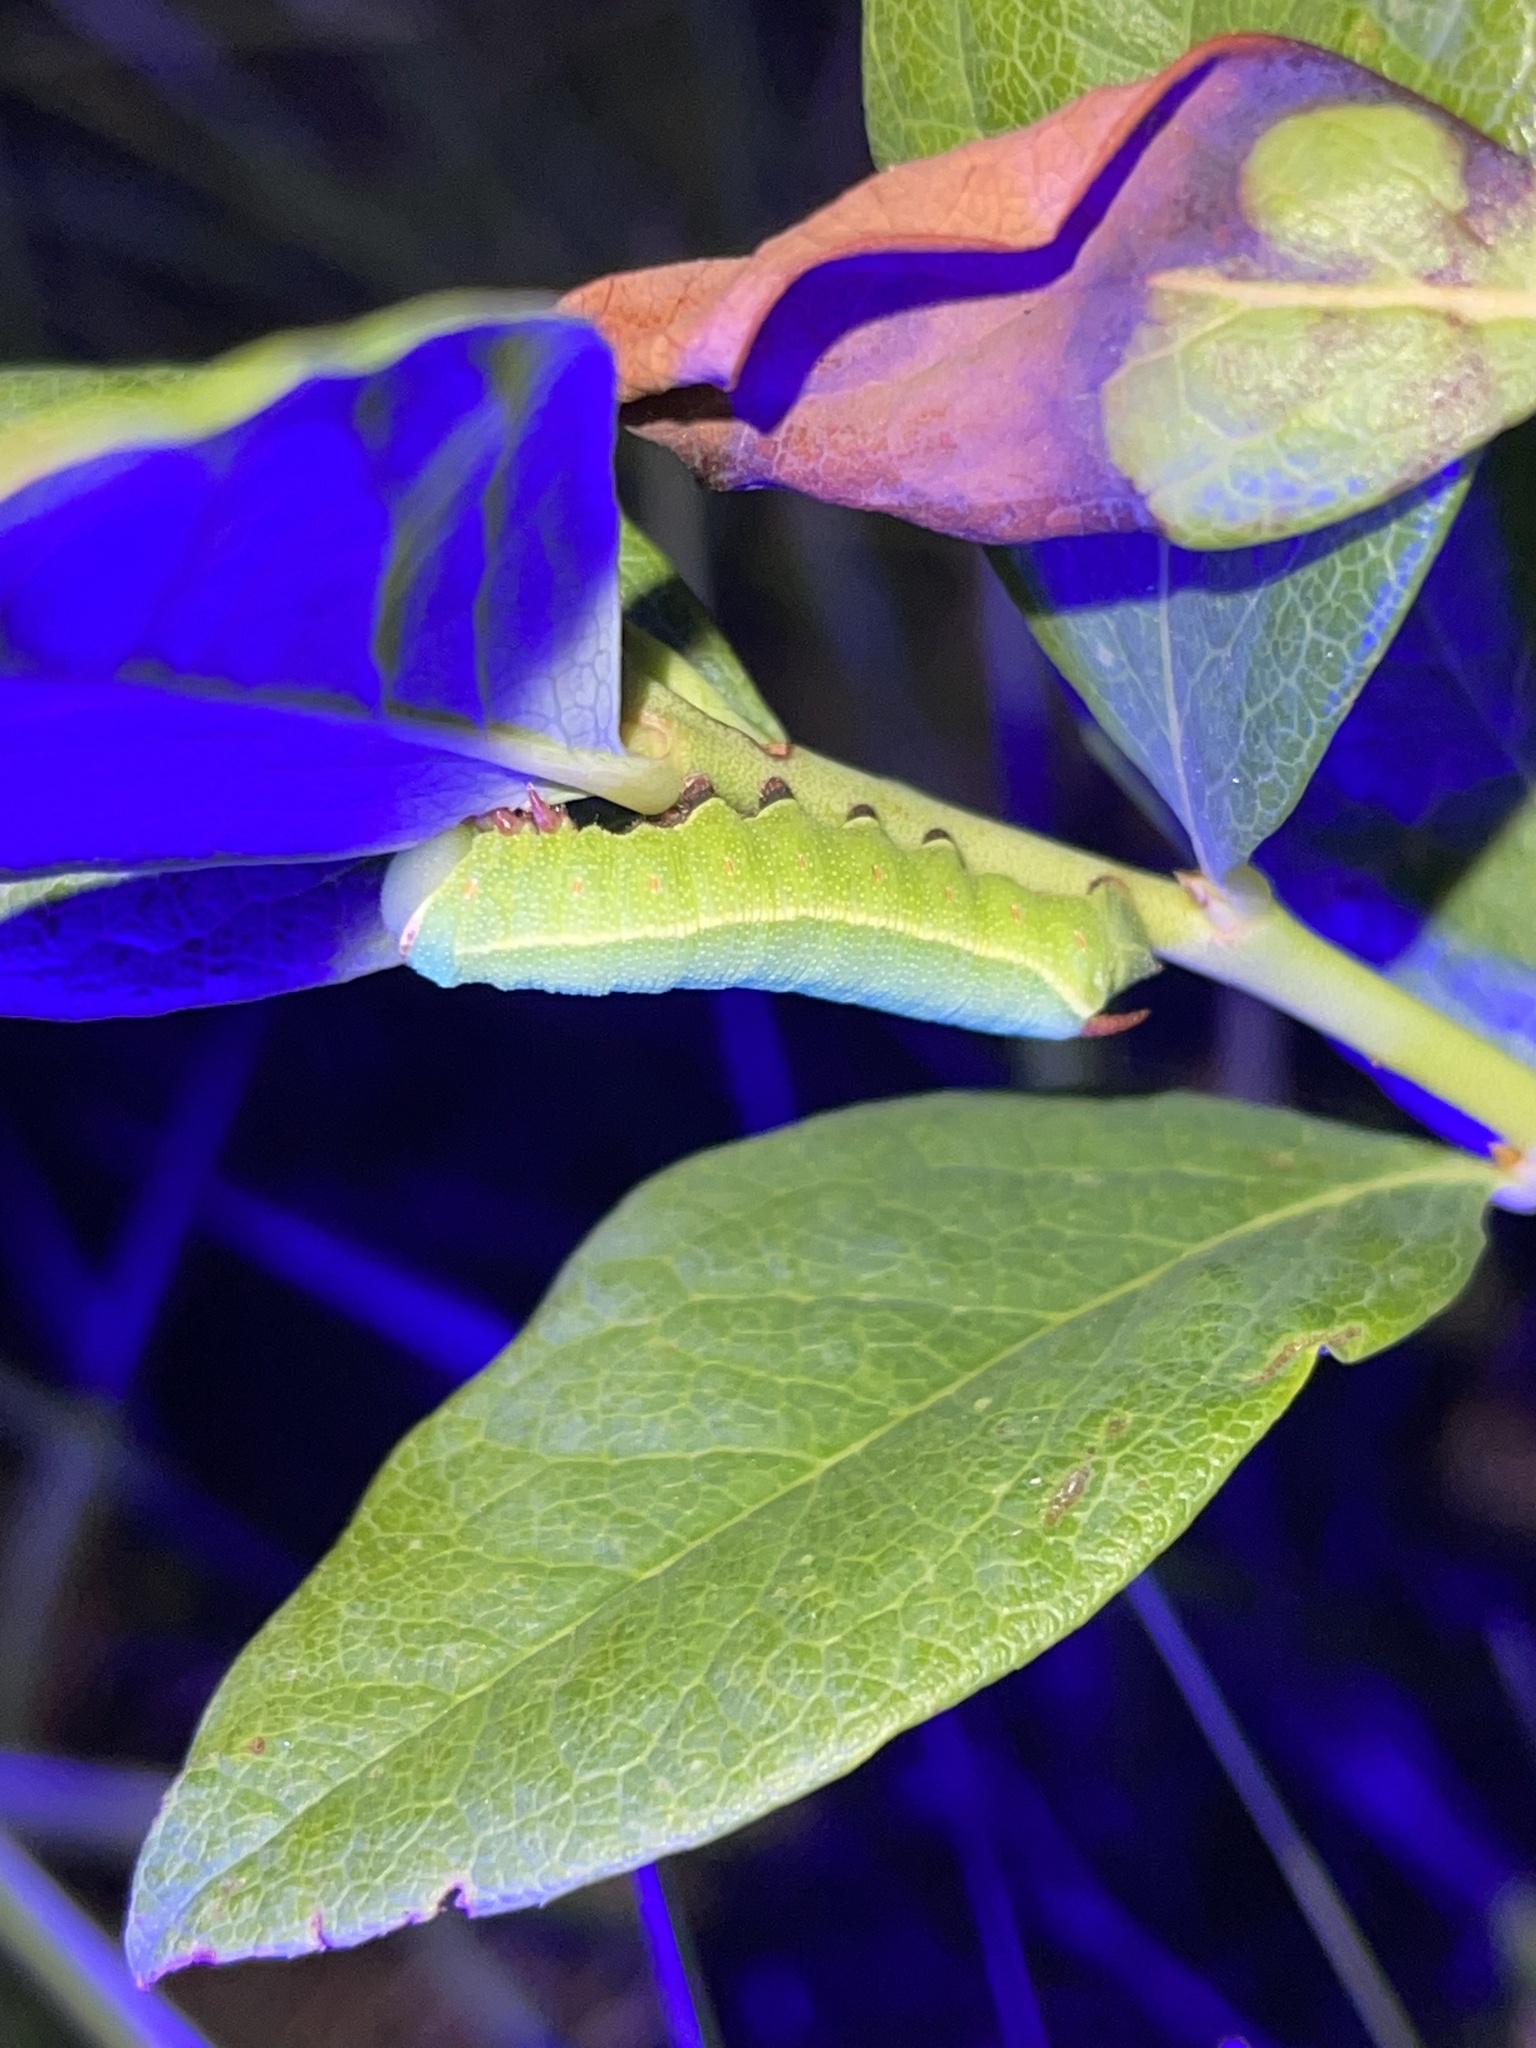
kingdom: Animalia
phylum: Arthropoda
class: Insecta
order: Lepidoptera
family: Sphingidae
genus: Hemaris
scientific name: Hemaris gracilis
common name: Graceful clearwing
